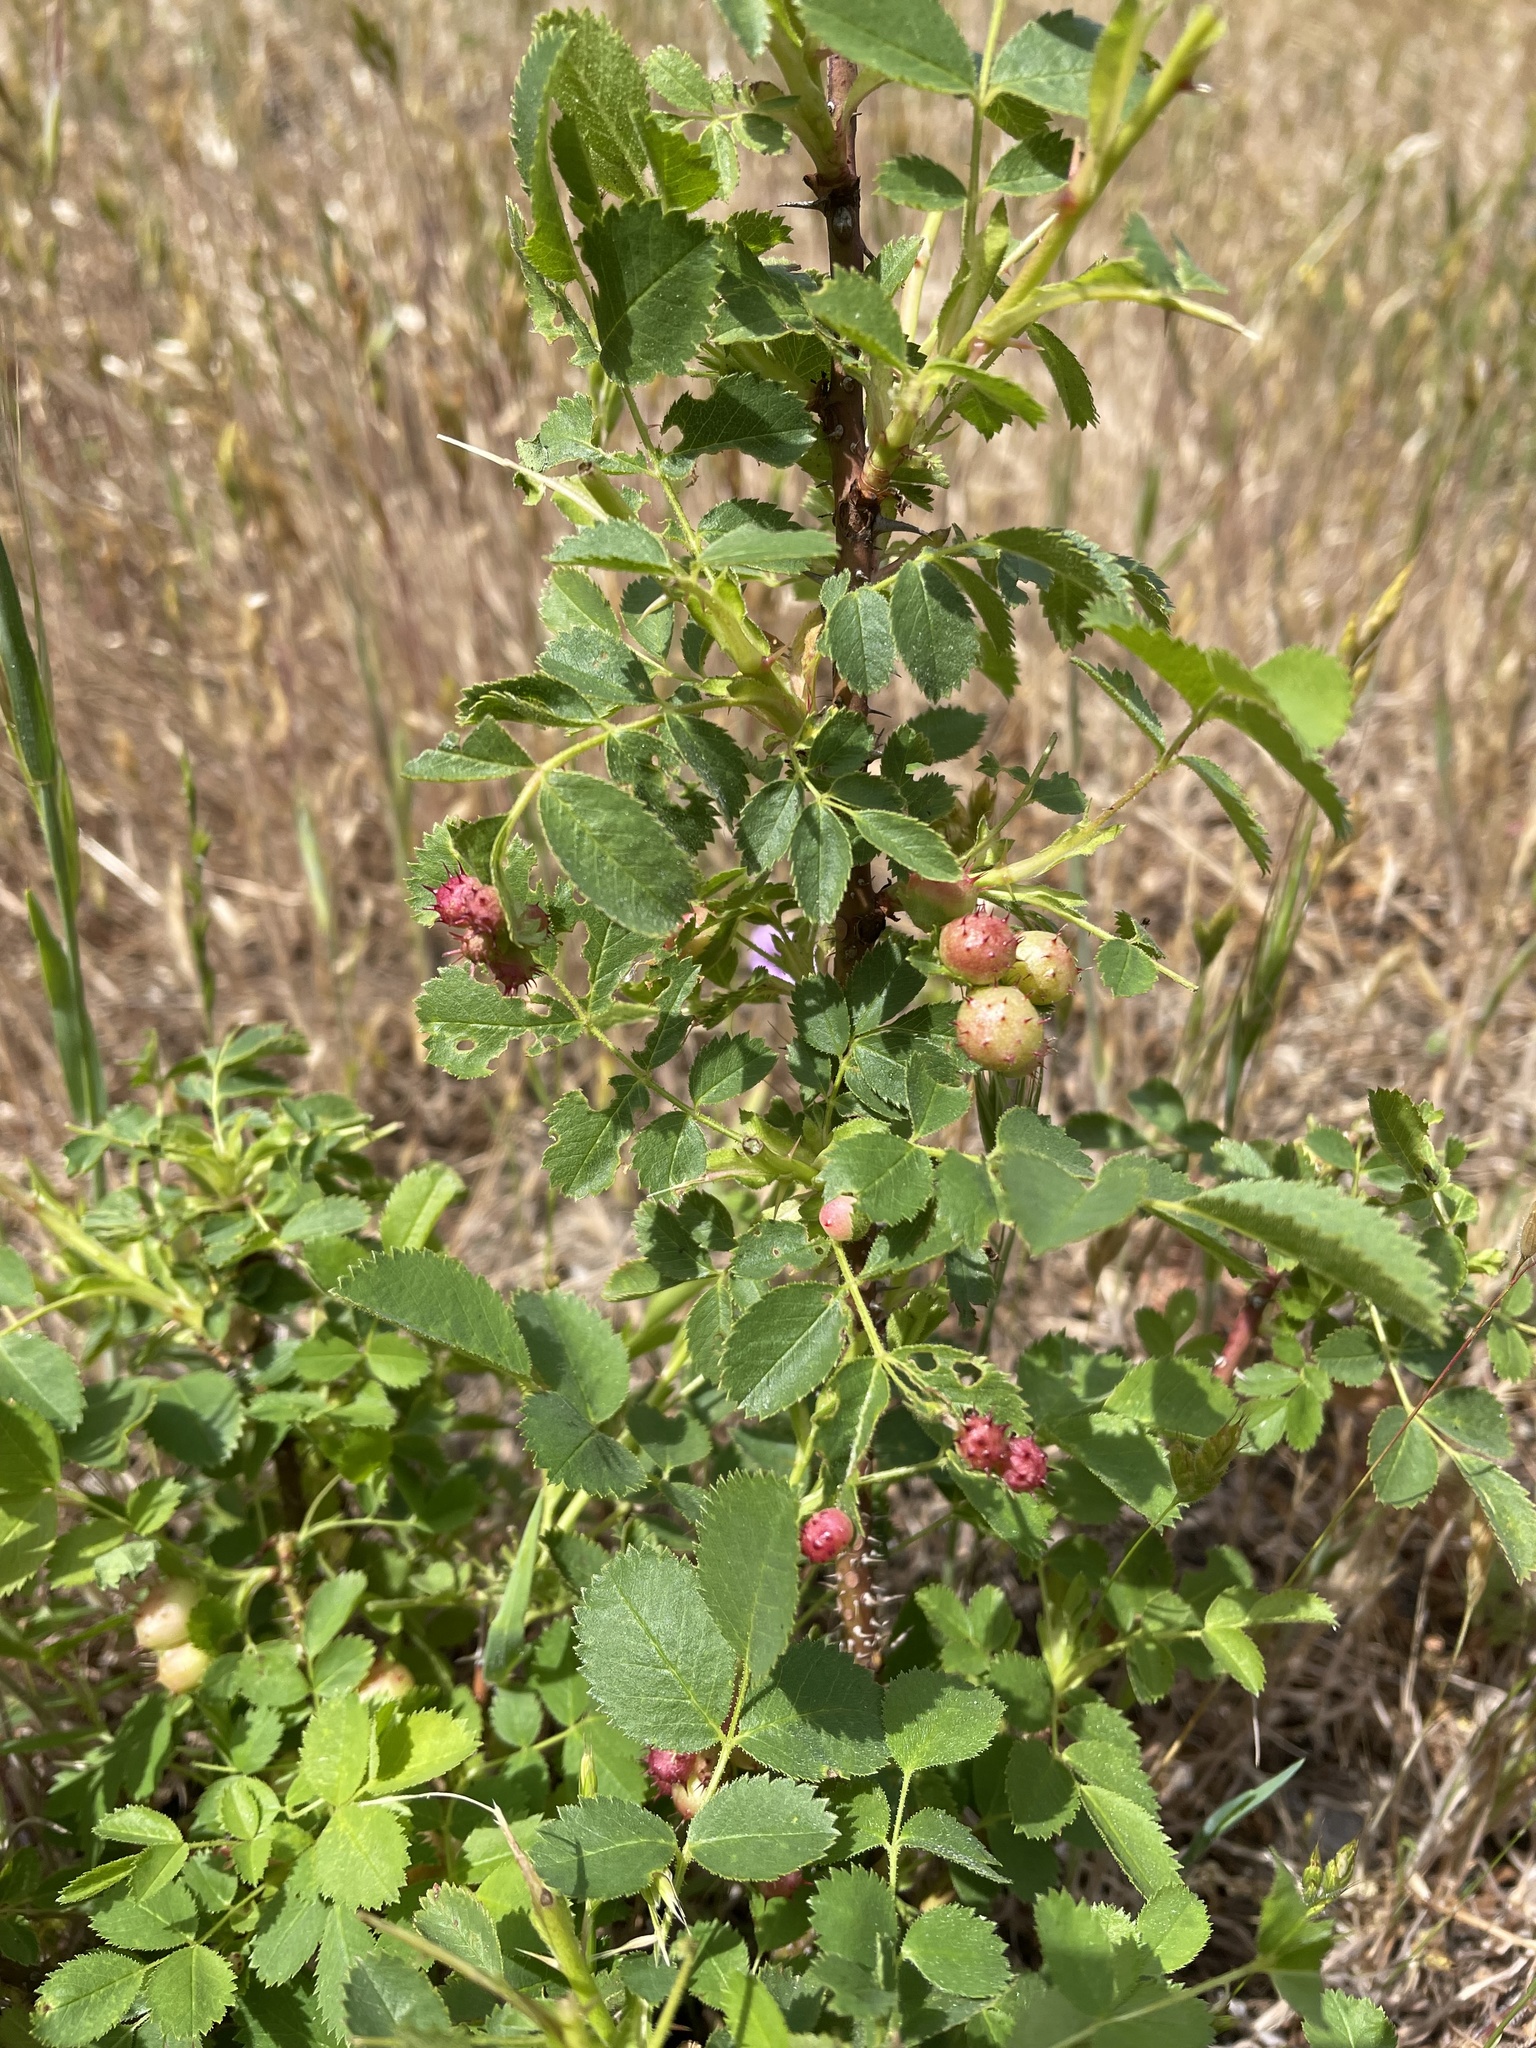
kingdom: Plantae
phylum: Tracheophyta
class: Magnoliopsida
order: Rosales
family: Rosaceae
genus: Rosa
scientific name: Rosa californica
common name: California rose
